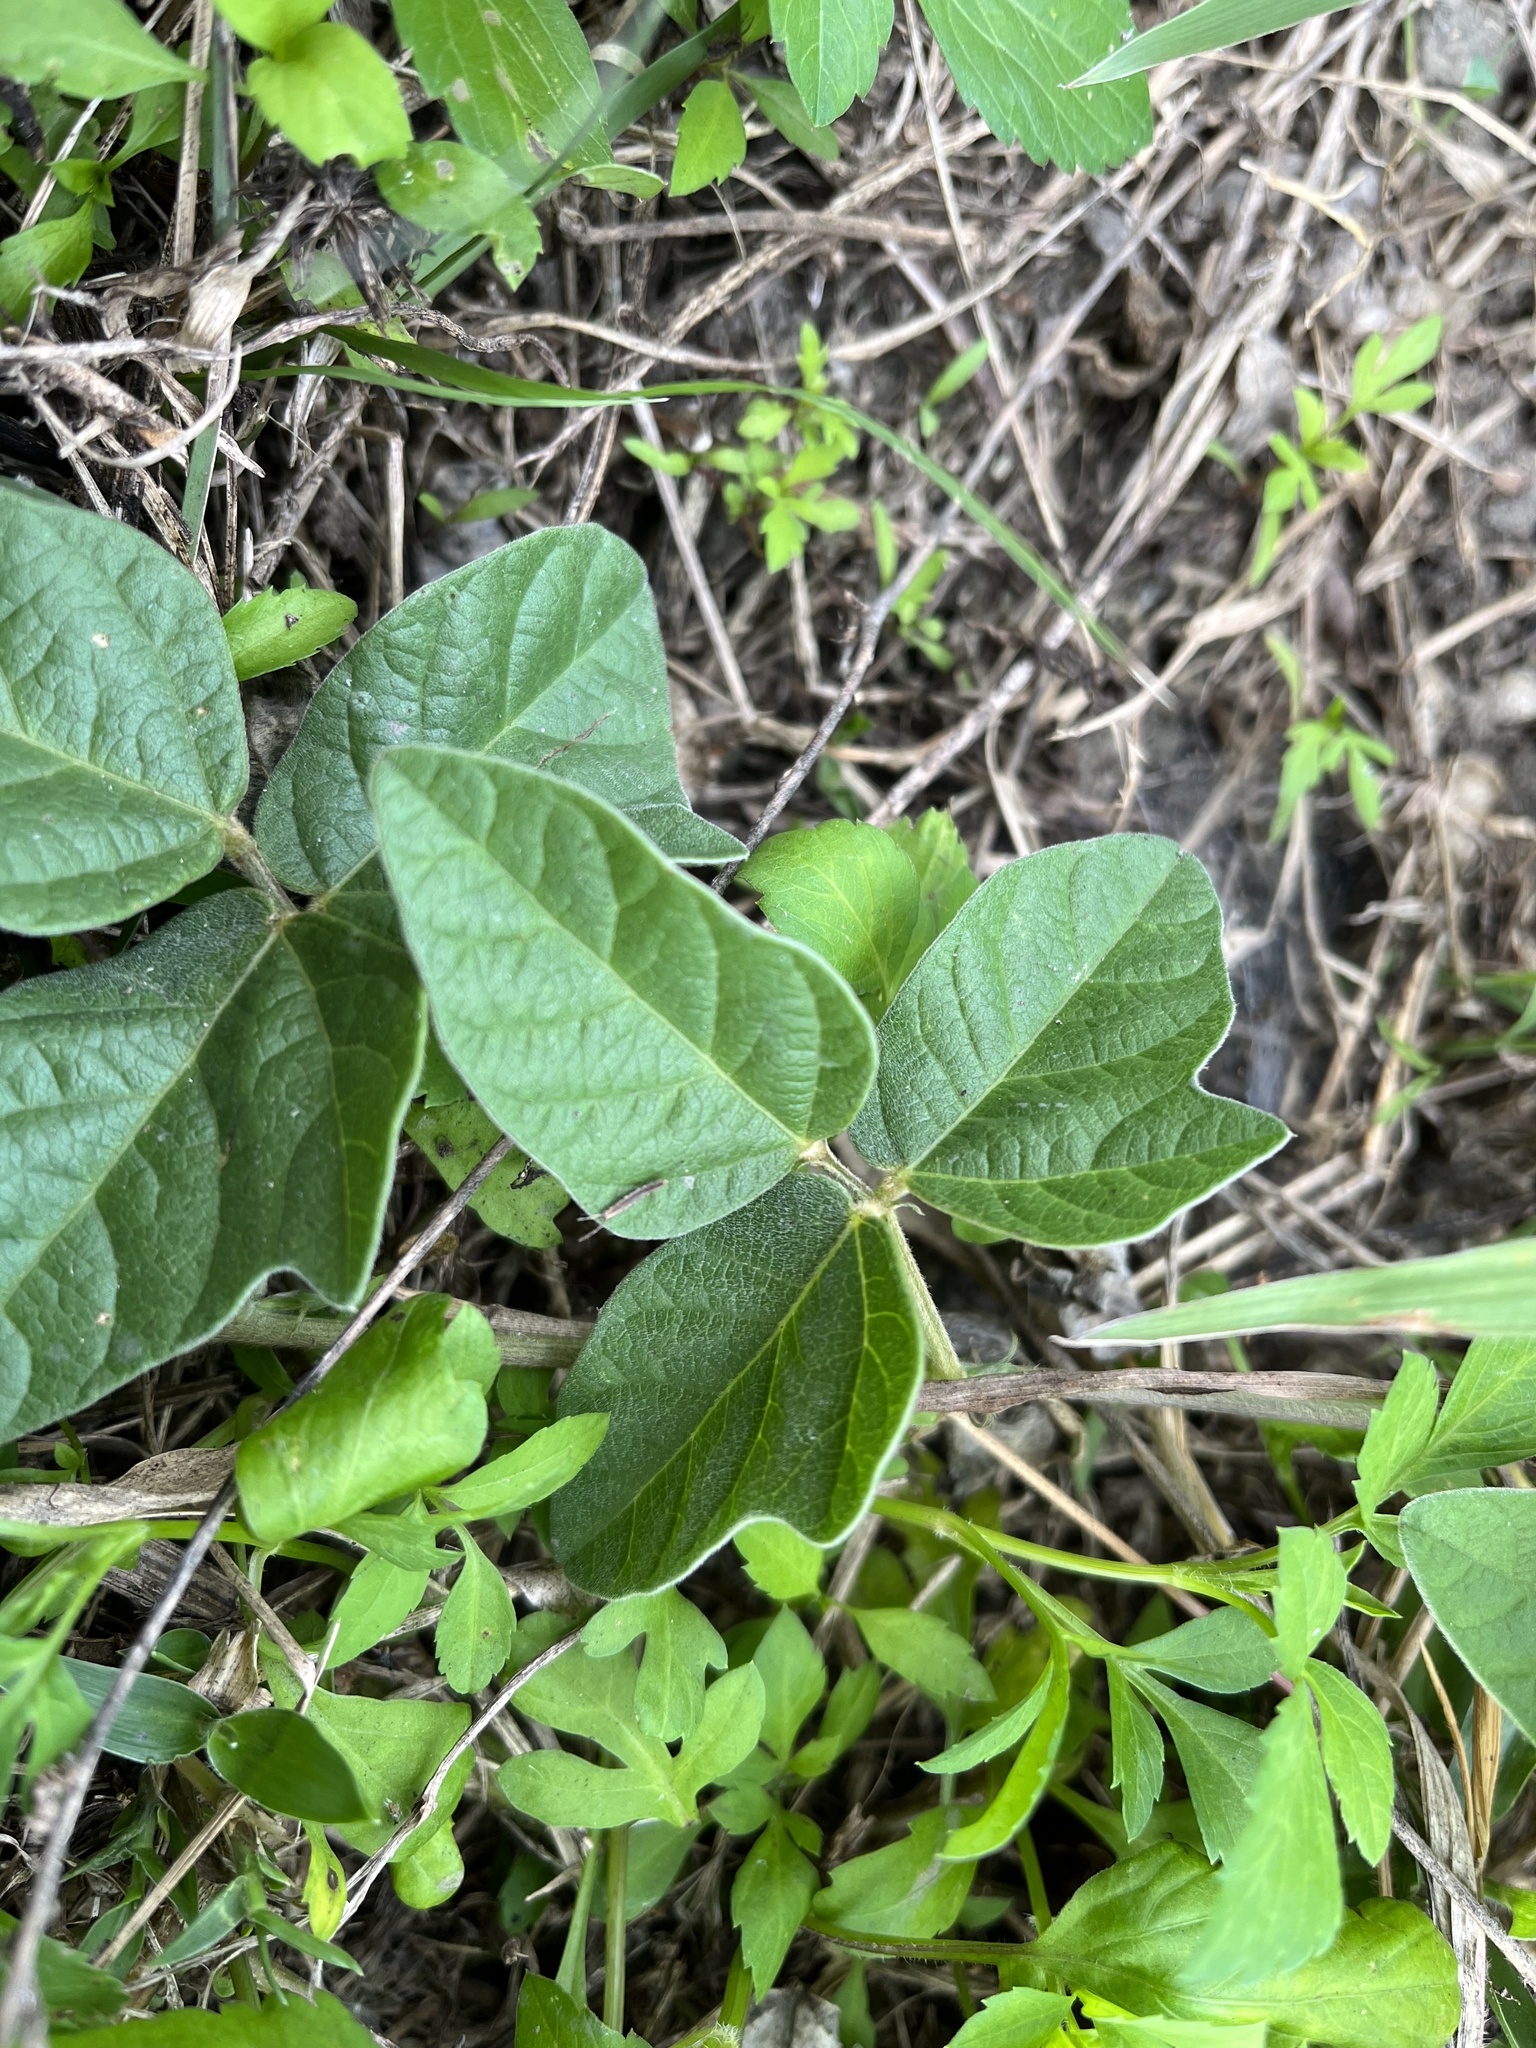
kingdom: Plantae
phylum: Tracheophyta
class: Magnoliopsida
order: Fabales
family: Fabaceae
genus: Macroptilium
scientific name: Macroptilium atropurpureum
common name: Purple bushbean
